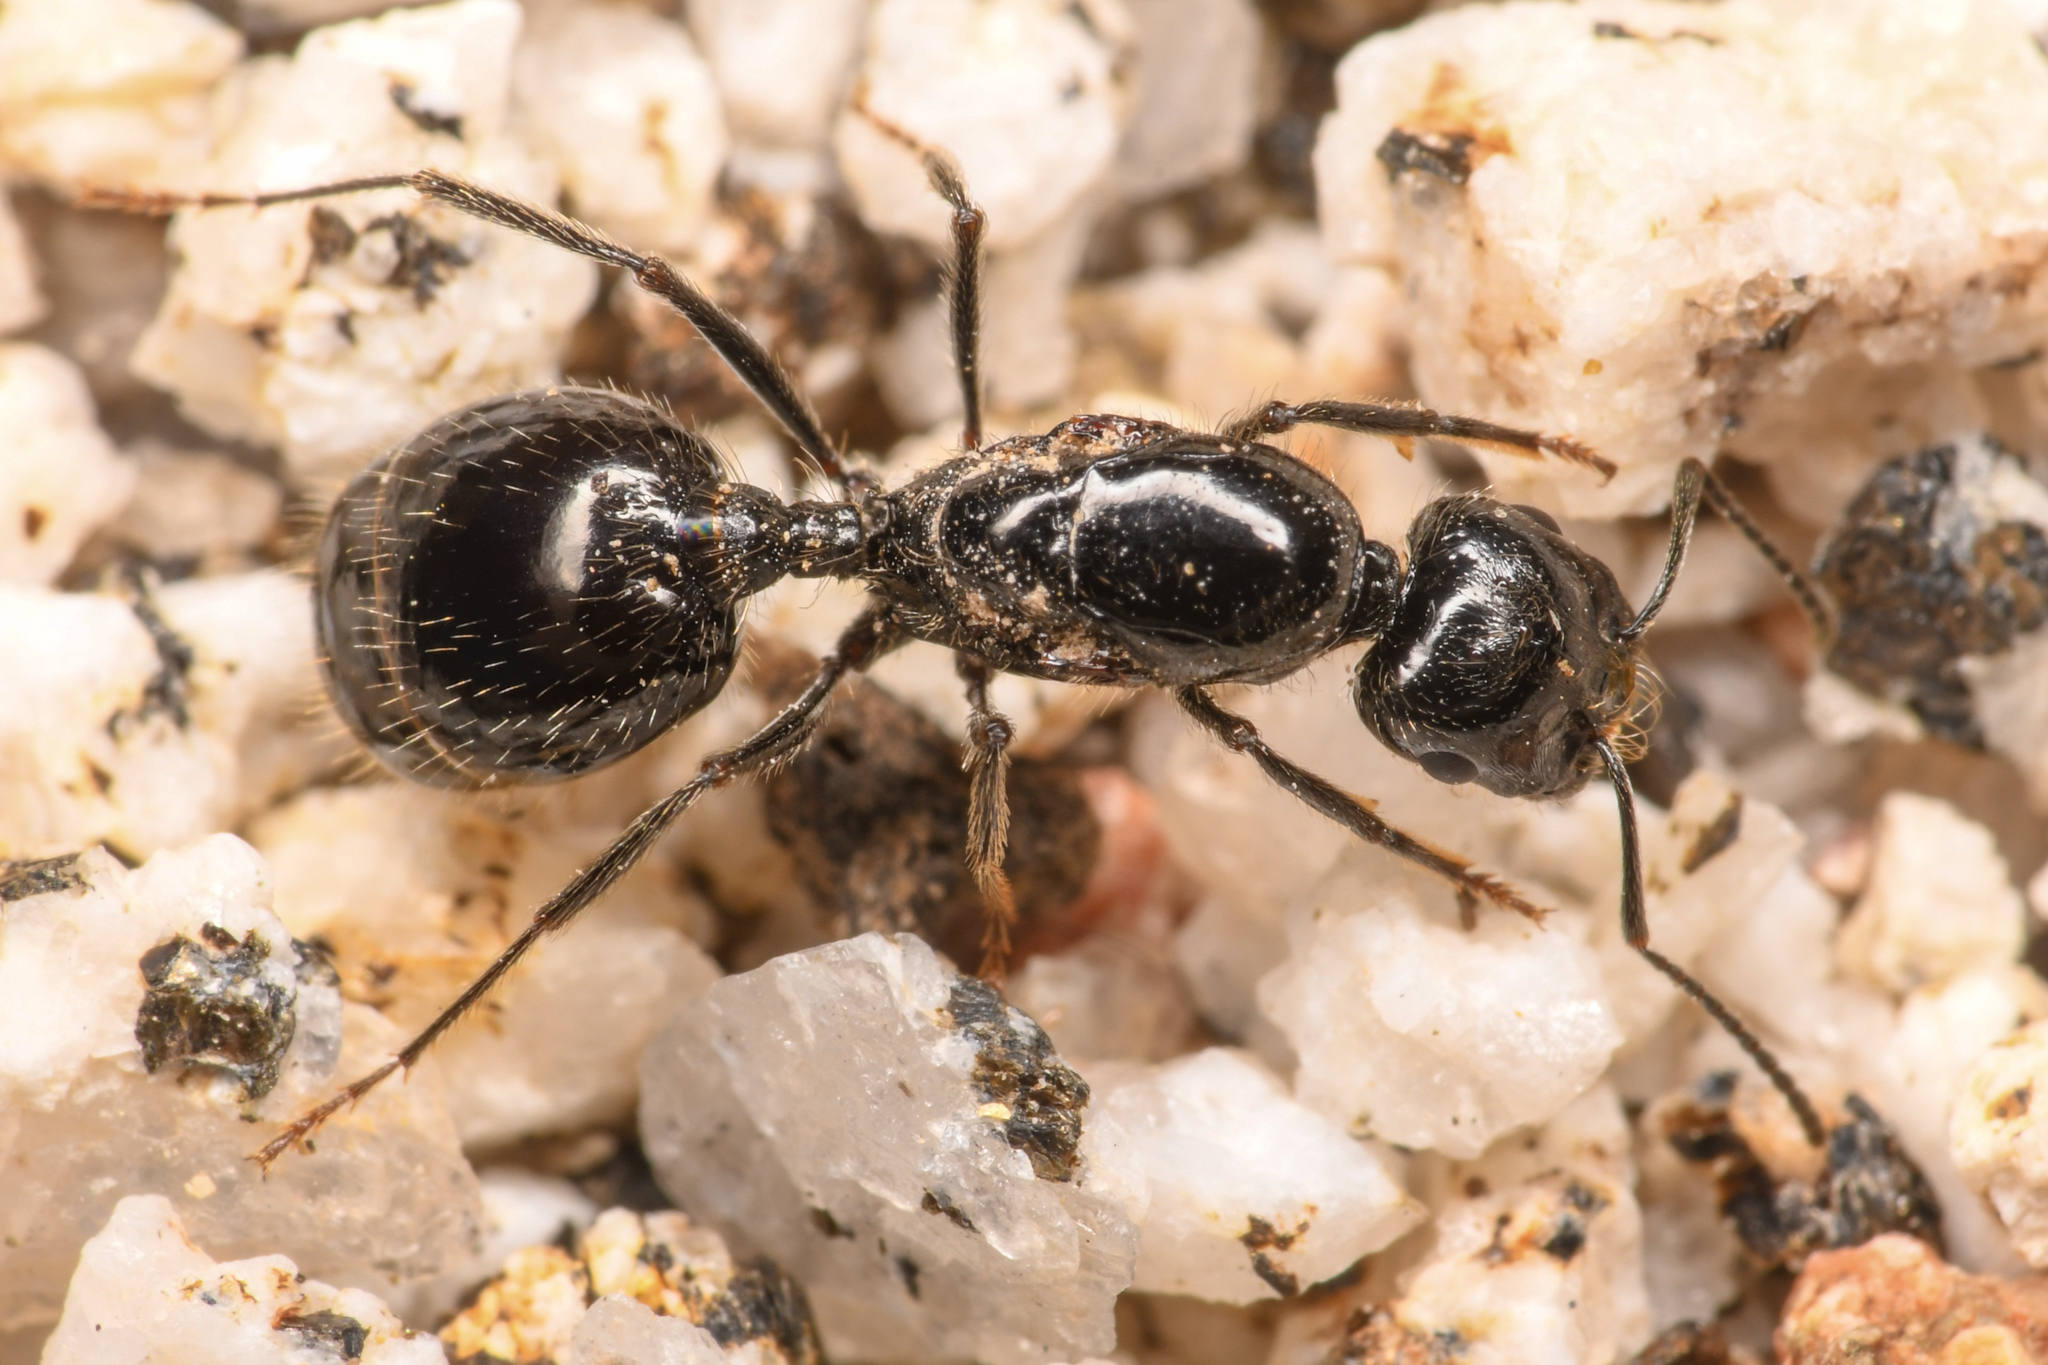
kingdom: Animalia
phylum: Arthropoda
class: Insecta
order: Hymenoptera
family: Formicidae
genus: Messor
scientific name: Messor pergandei
